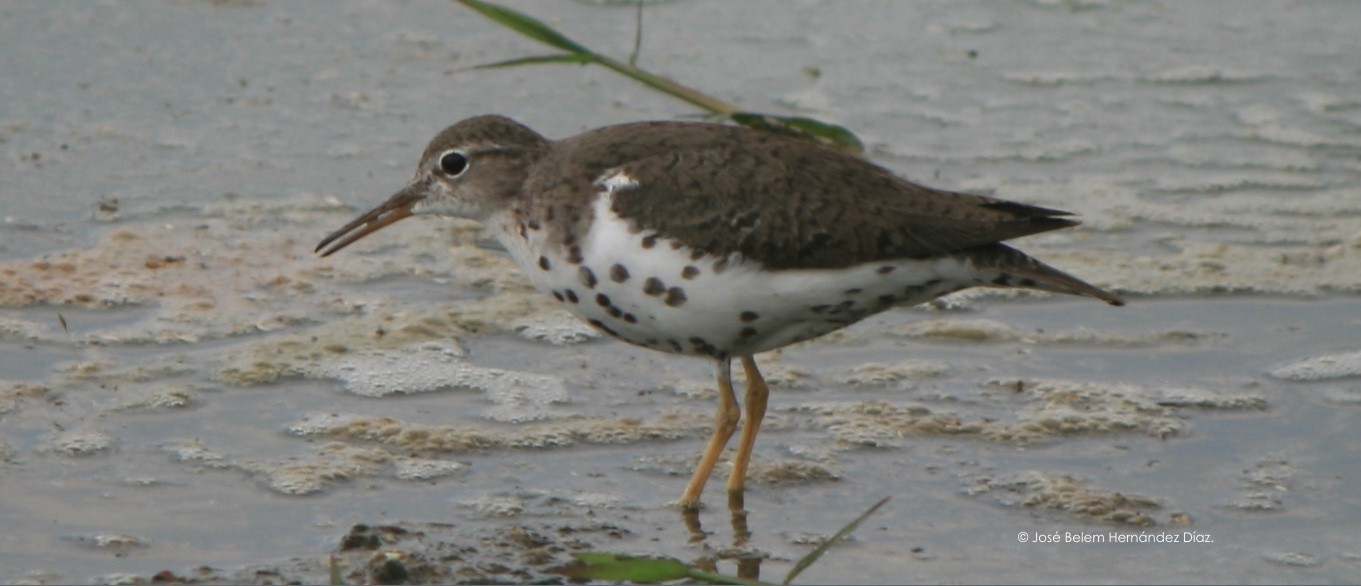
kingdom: Animalia
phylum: Chordata
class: Aves
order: Charadriiformes
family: Scolopacidae
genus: Actitis
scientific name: Actitis macularius
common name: Spotted sandpiper
